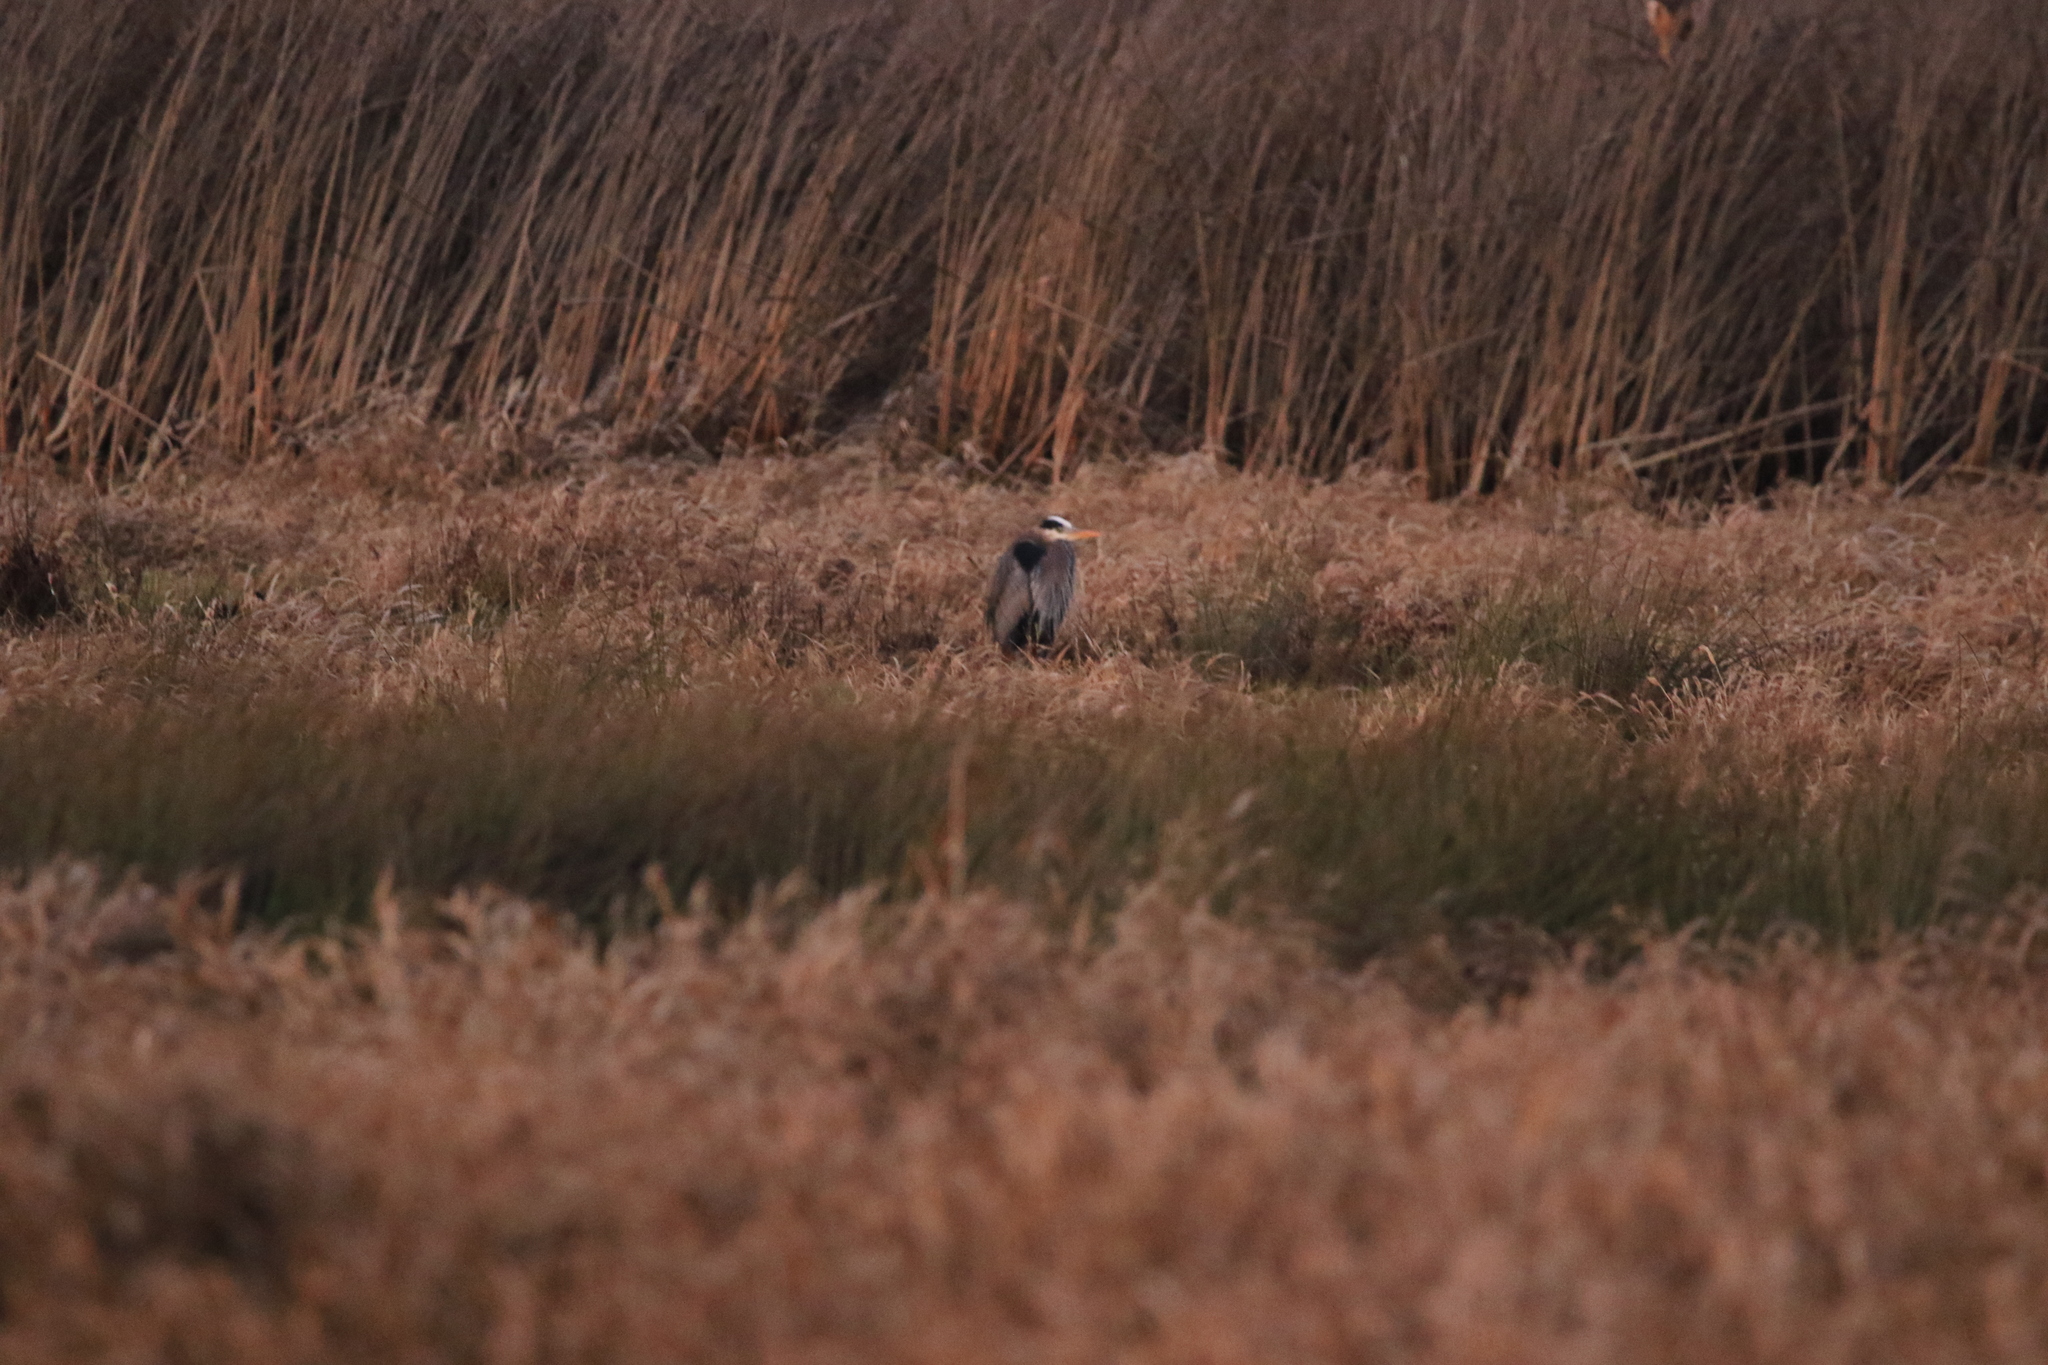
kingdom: Animalia
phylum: Chordata
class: Aves
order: Pelecaniformes
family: Ardeidae
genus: Ardea
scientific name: Ardea herodias
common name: Great blue heron
